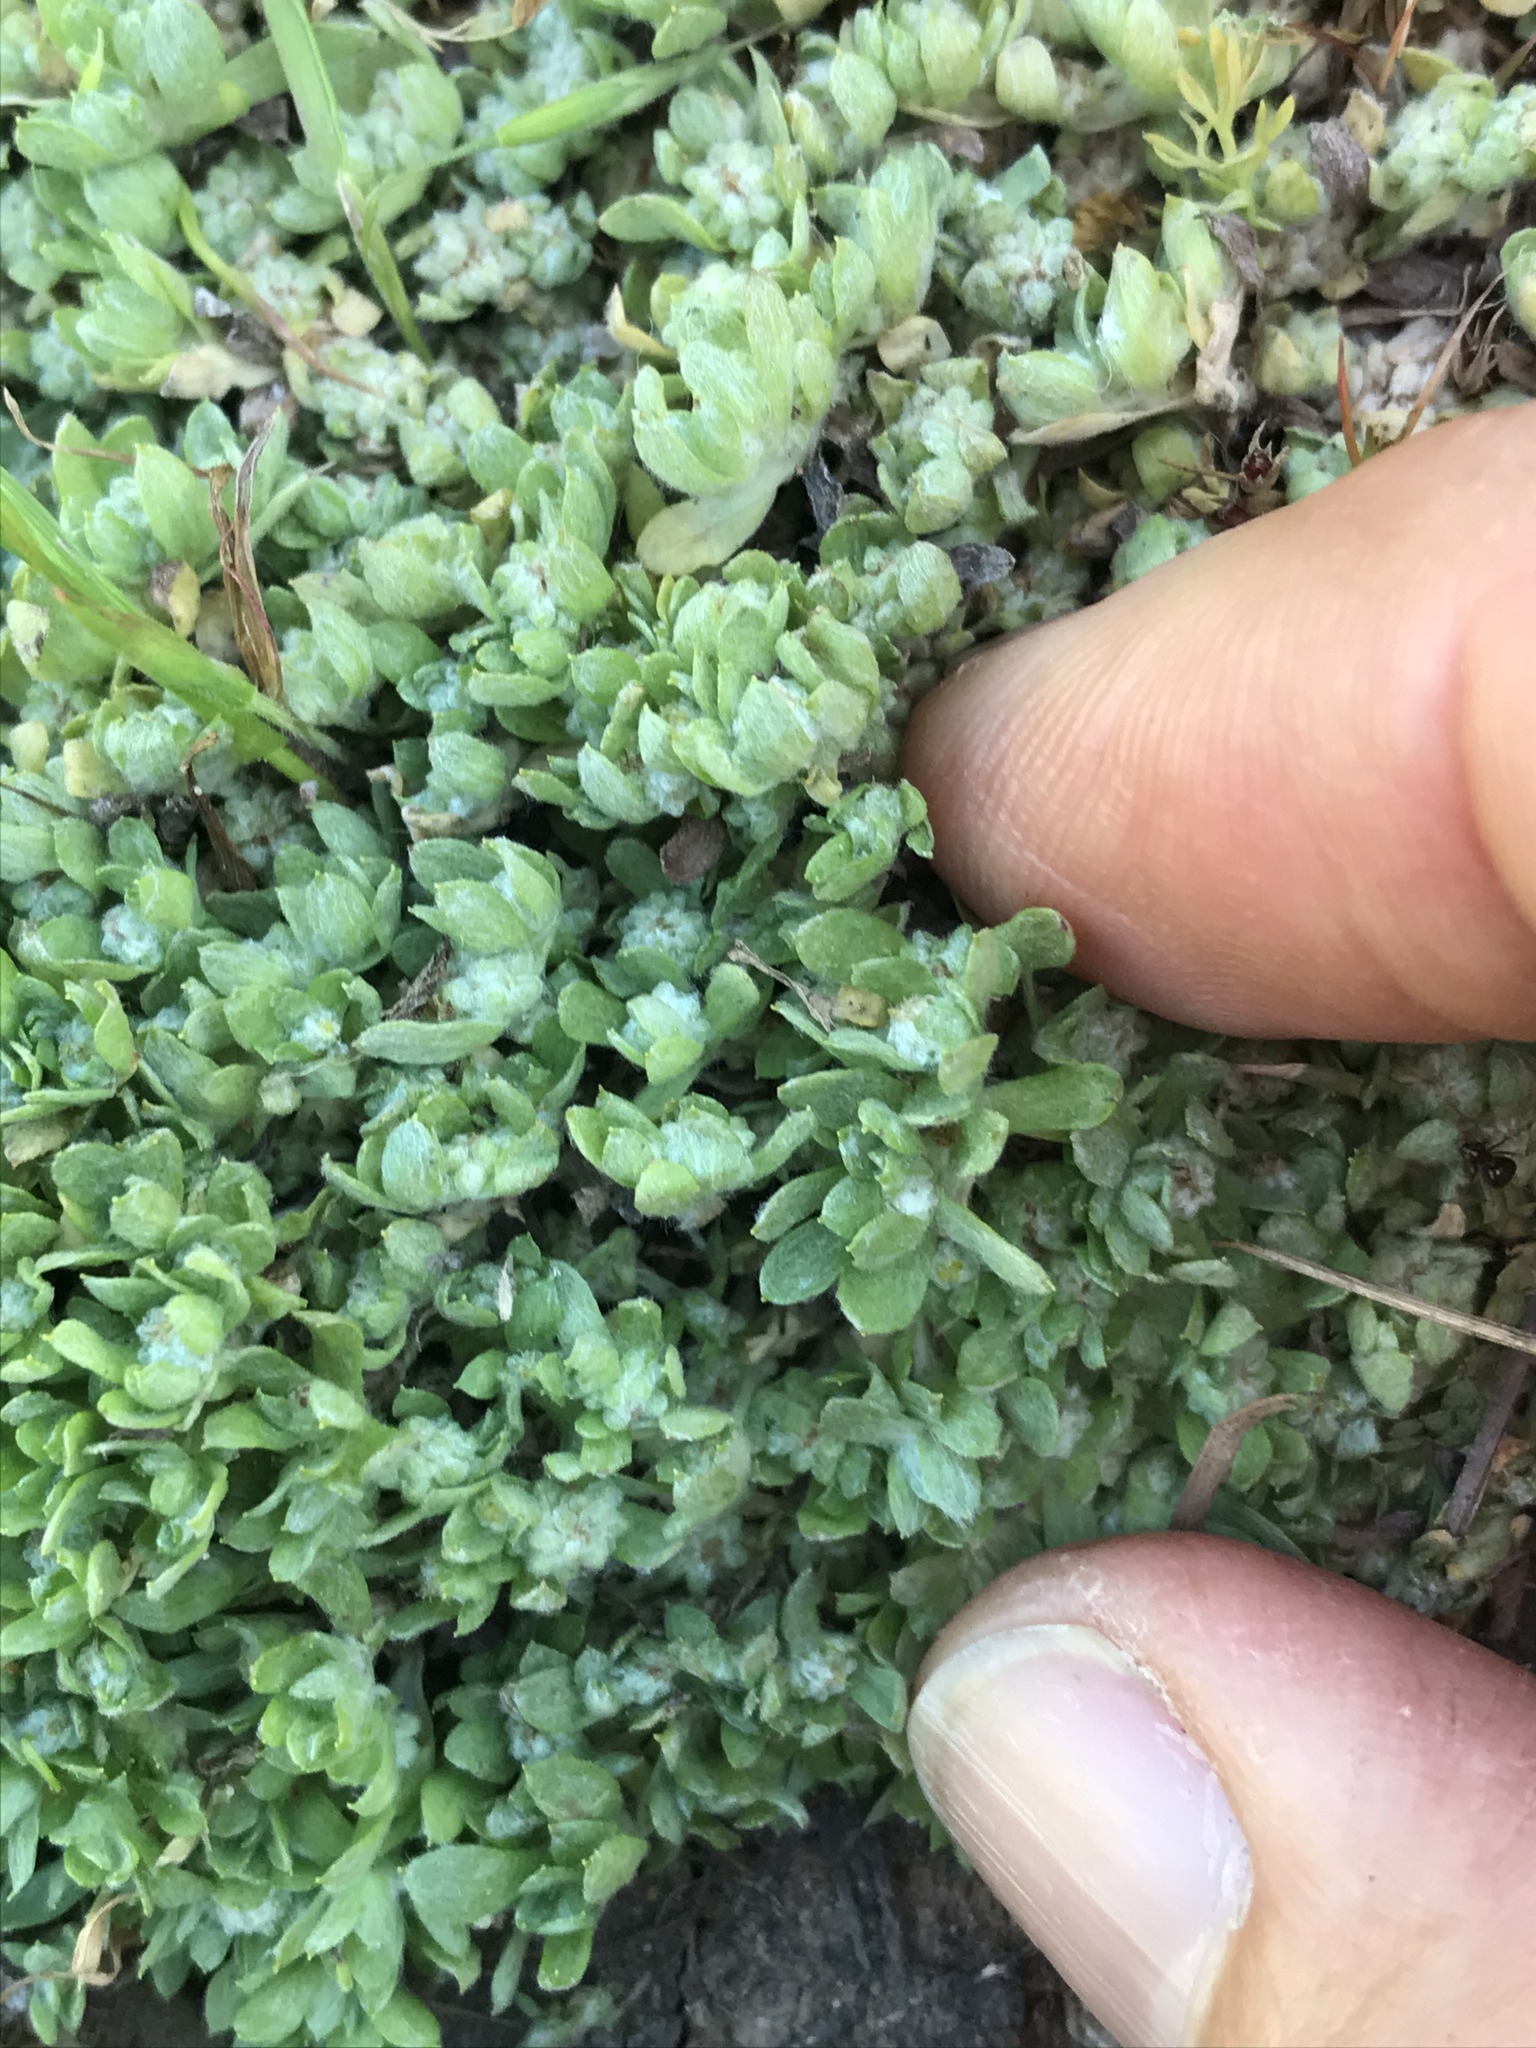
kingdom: Plantae
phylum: Tracheophyta
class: Magnoliopsida
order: Asterales
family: Asteraceae
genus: Psilocarphus
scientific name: Psilocarphus tenellus
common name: Slender woolly-marbles
